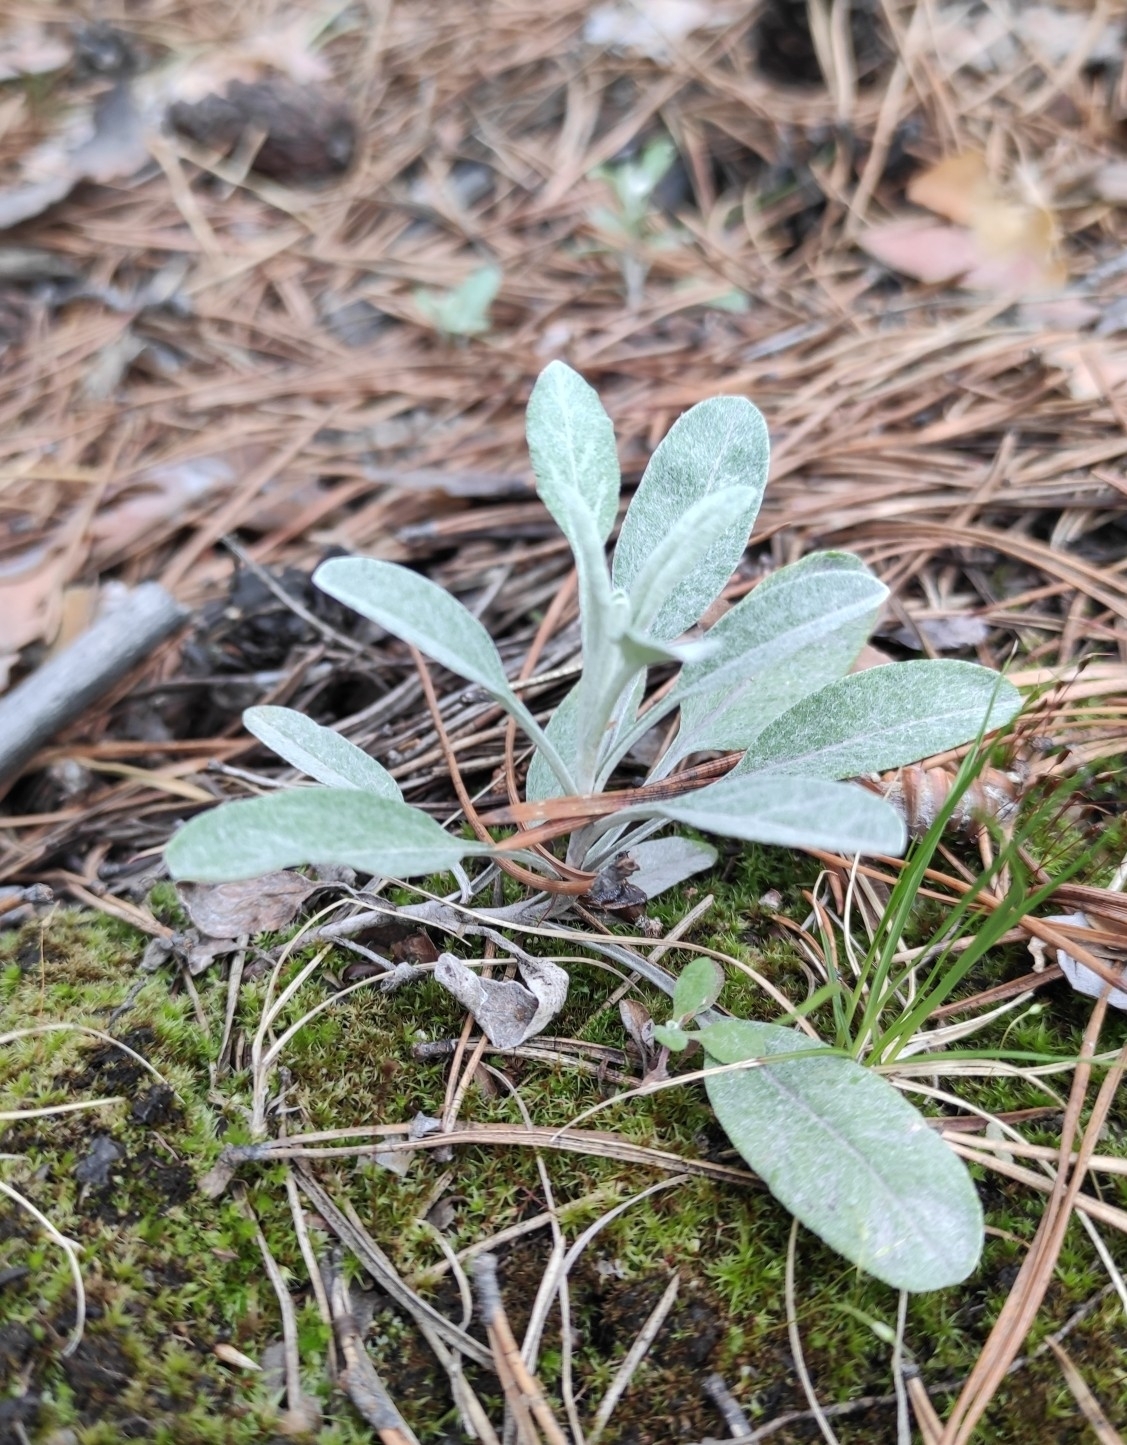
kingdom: Plantae
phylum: Tracheophyta
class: Magnoliopsida
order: Lamiales
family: Plantaginaceae
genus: Veronica
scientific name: Veronica incana
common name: Silver speedwell
